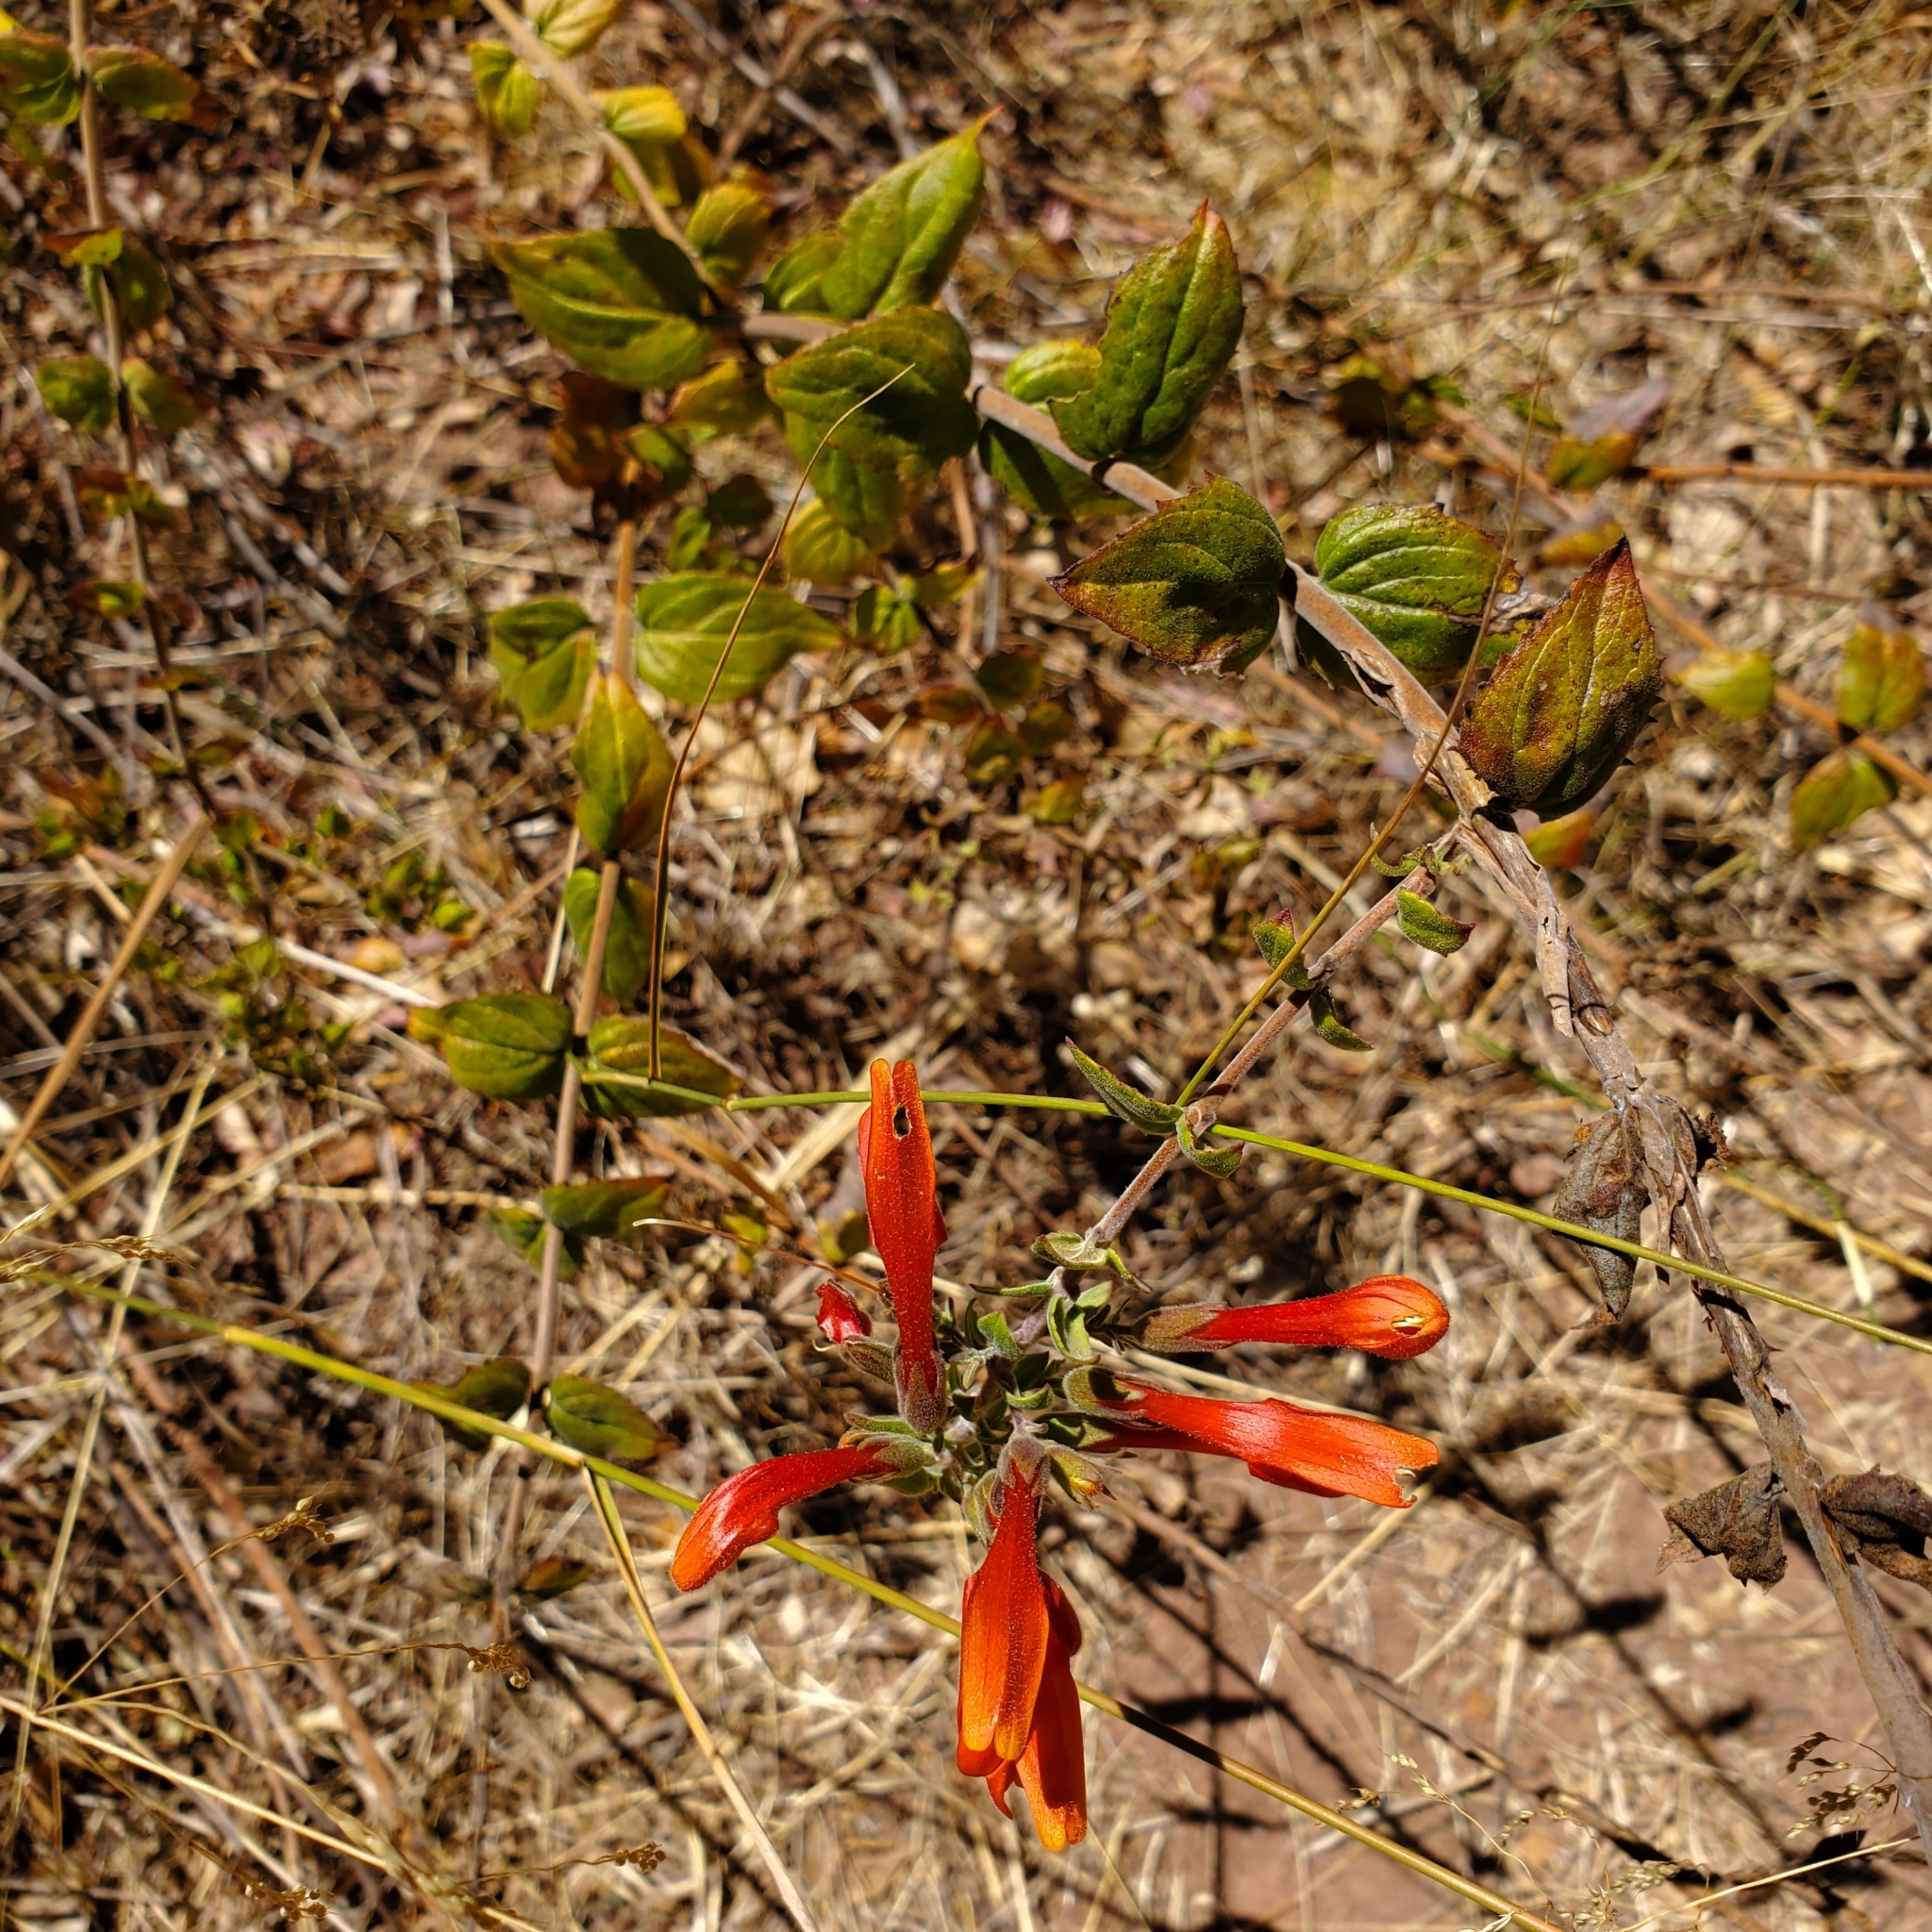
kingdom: Plantae
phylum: Tracheophyta
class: Magnoliopsida
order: Lamiales
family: Plantaginaceae
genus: Keckiella
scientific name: Keckiella cordifolia
